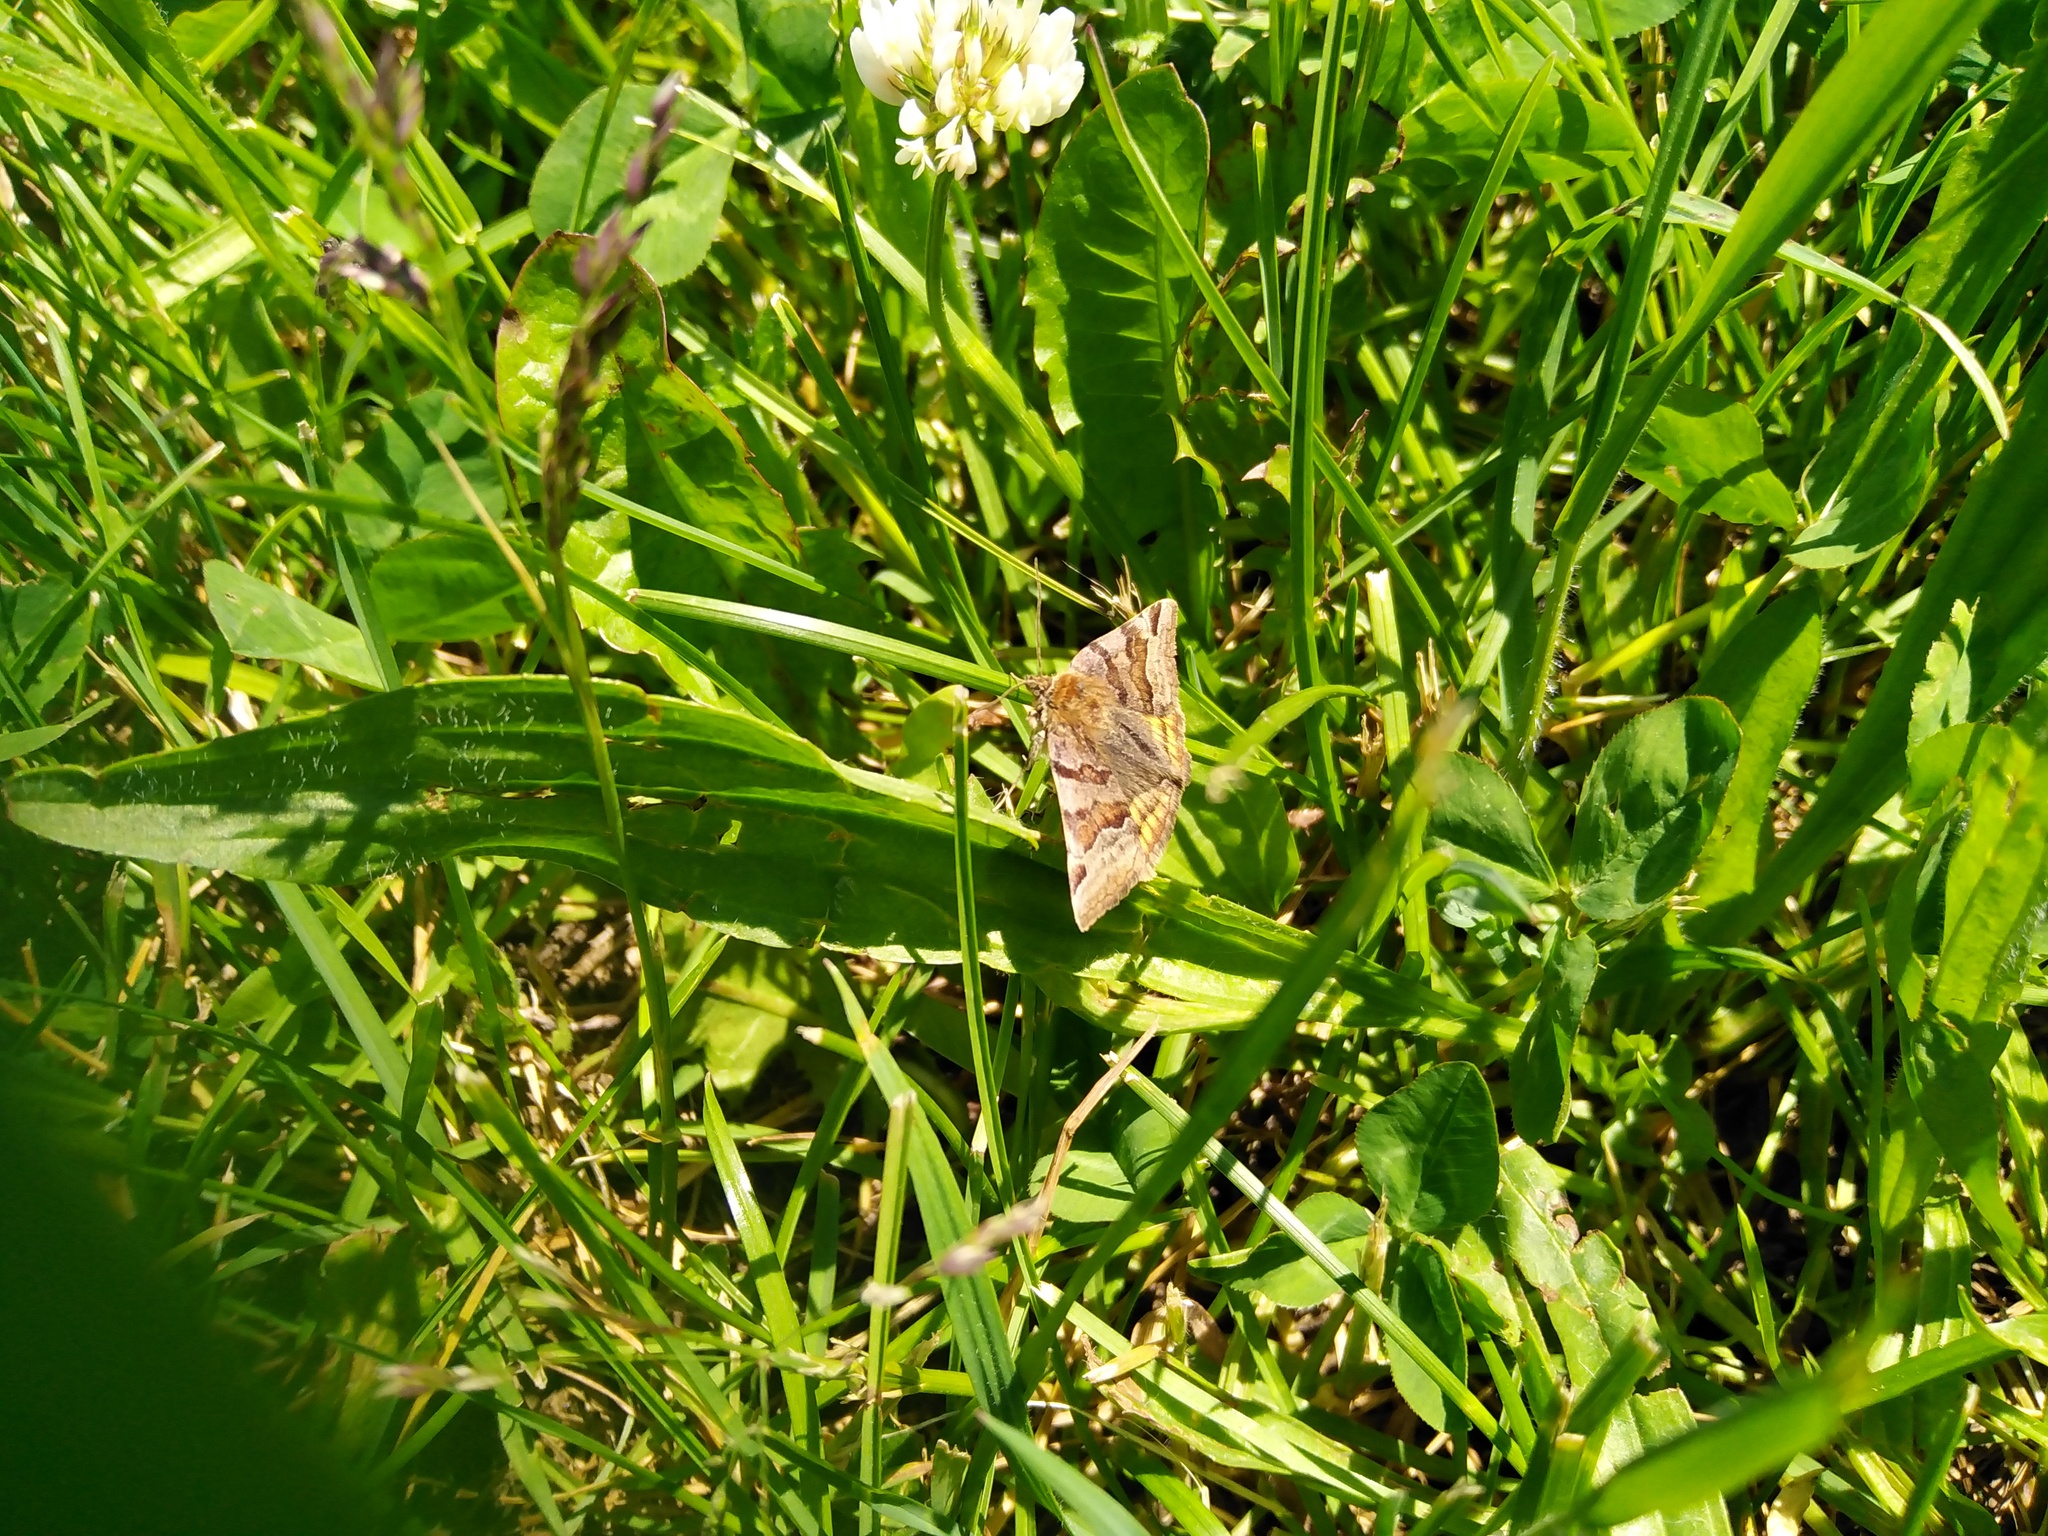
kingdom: Animalia
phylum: Arthropoda
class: Insecta
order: Lepidoptera
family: Erebidae
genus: Euclidia
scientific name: Euclidia glyphica
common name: Burnet companion
